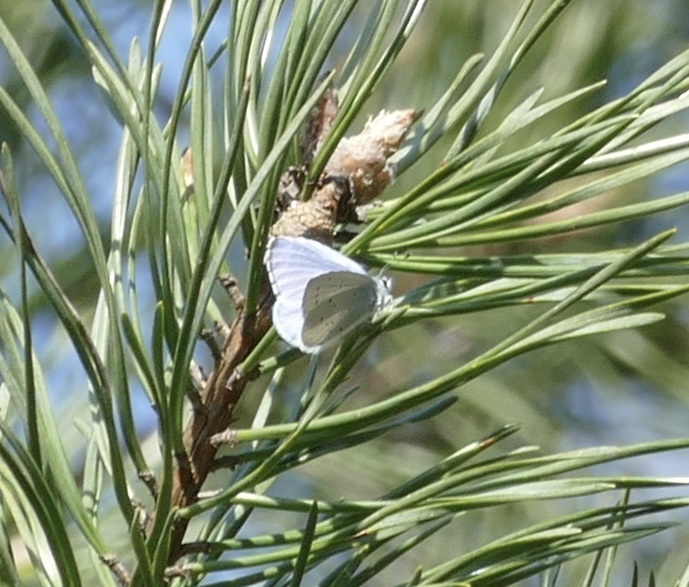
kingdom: Animalia
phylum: Arthropoda
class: Insecta
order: Lepidoptera
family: Lycaenidae
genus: Celastrina
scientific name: Celastrina argiolus
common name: Holly blue
